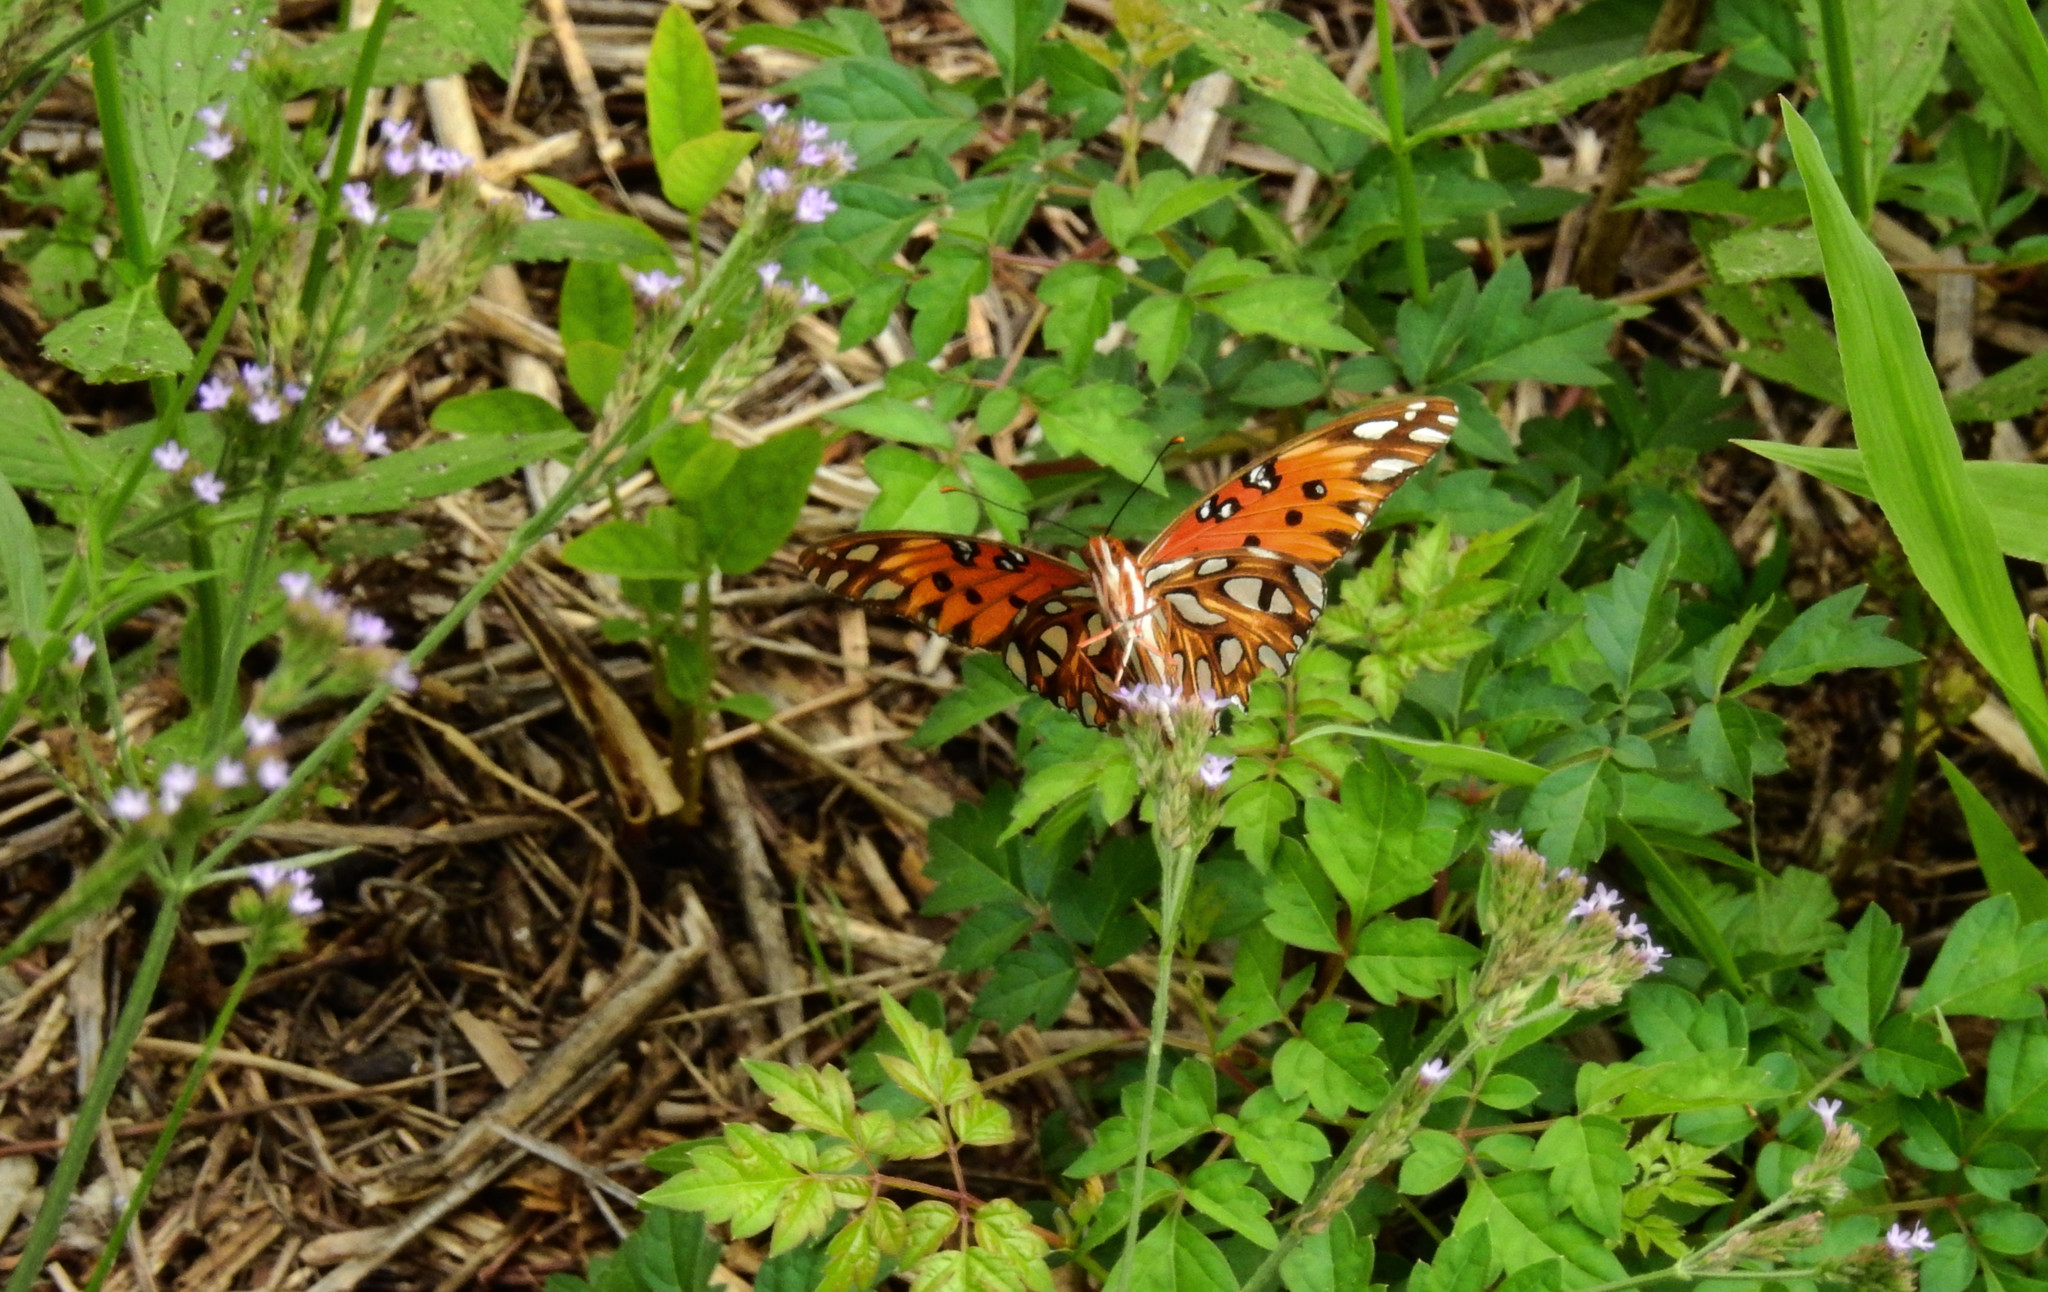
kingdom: Animalia
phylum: Arthropoda
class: Insecta
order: Lepidoptera
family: Nymphalidae
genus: Dione
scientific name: Dione vanillae
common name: Gulf fritillary
